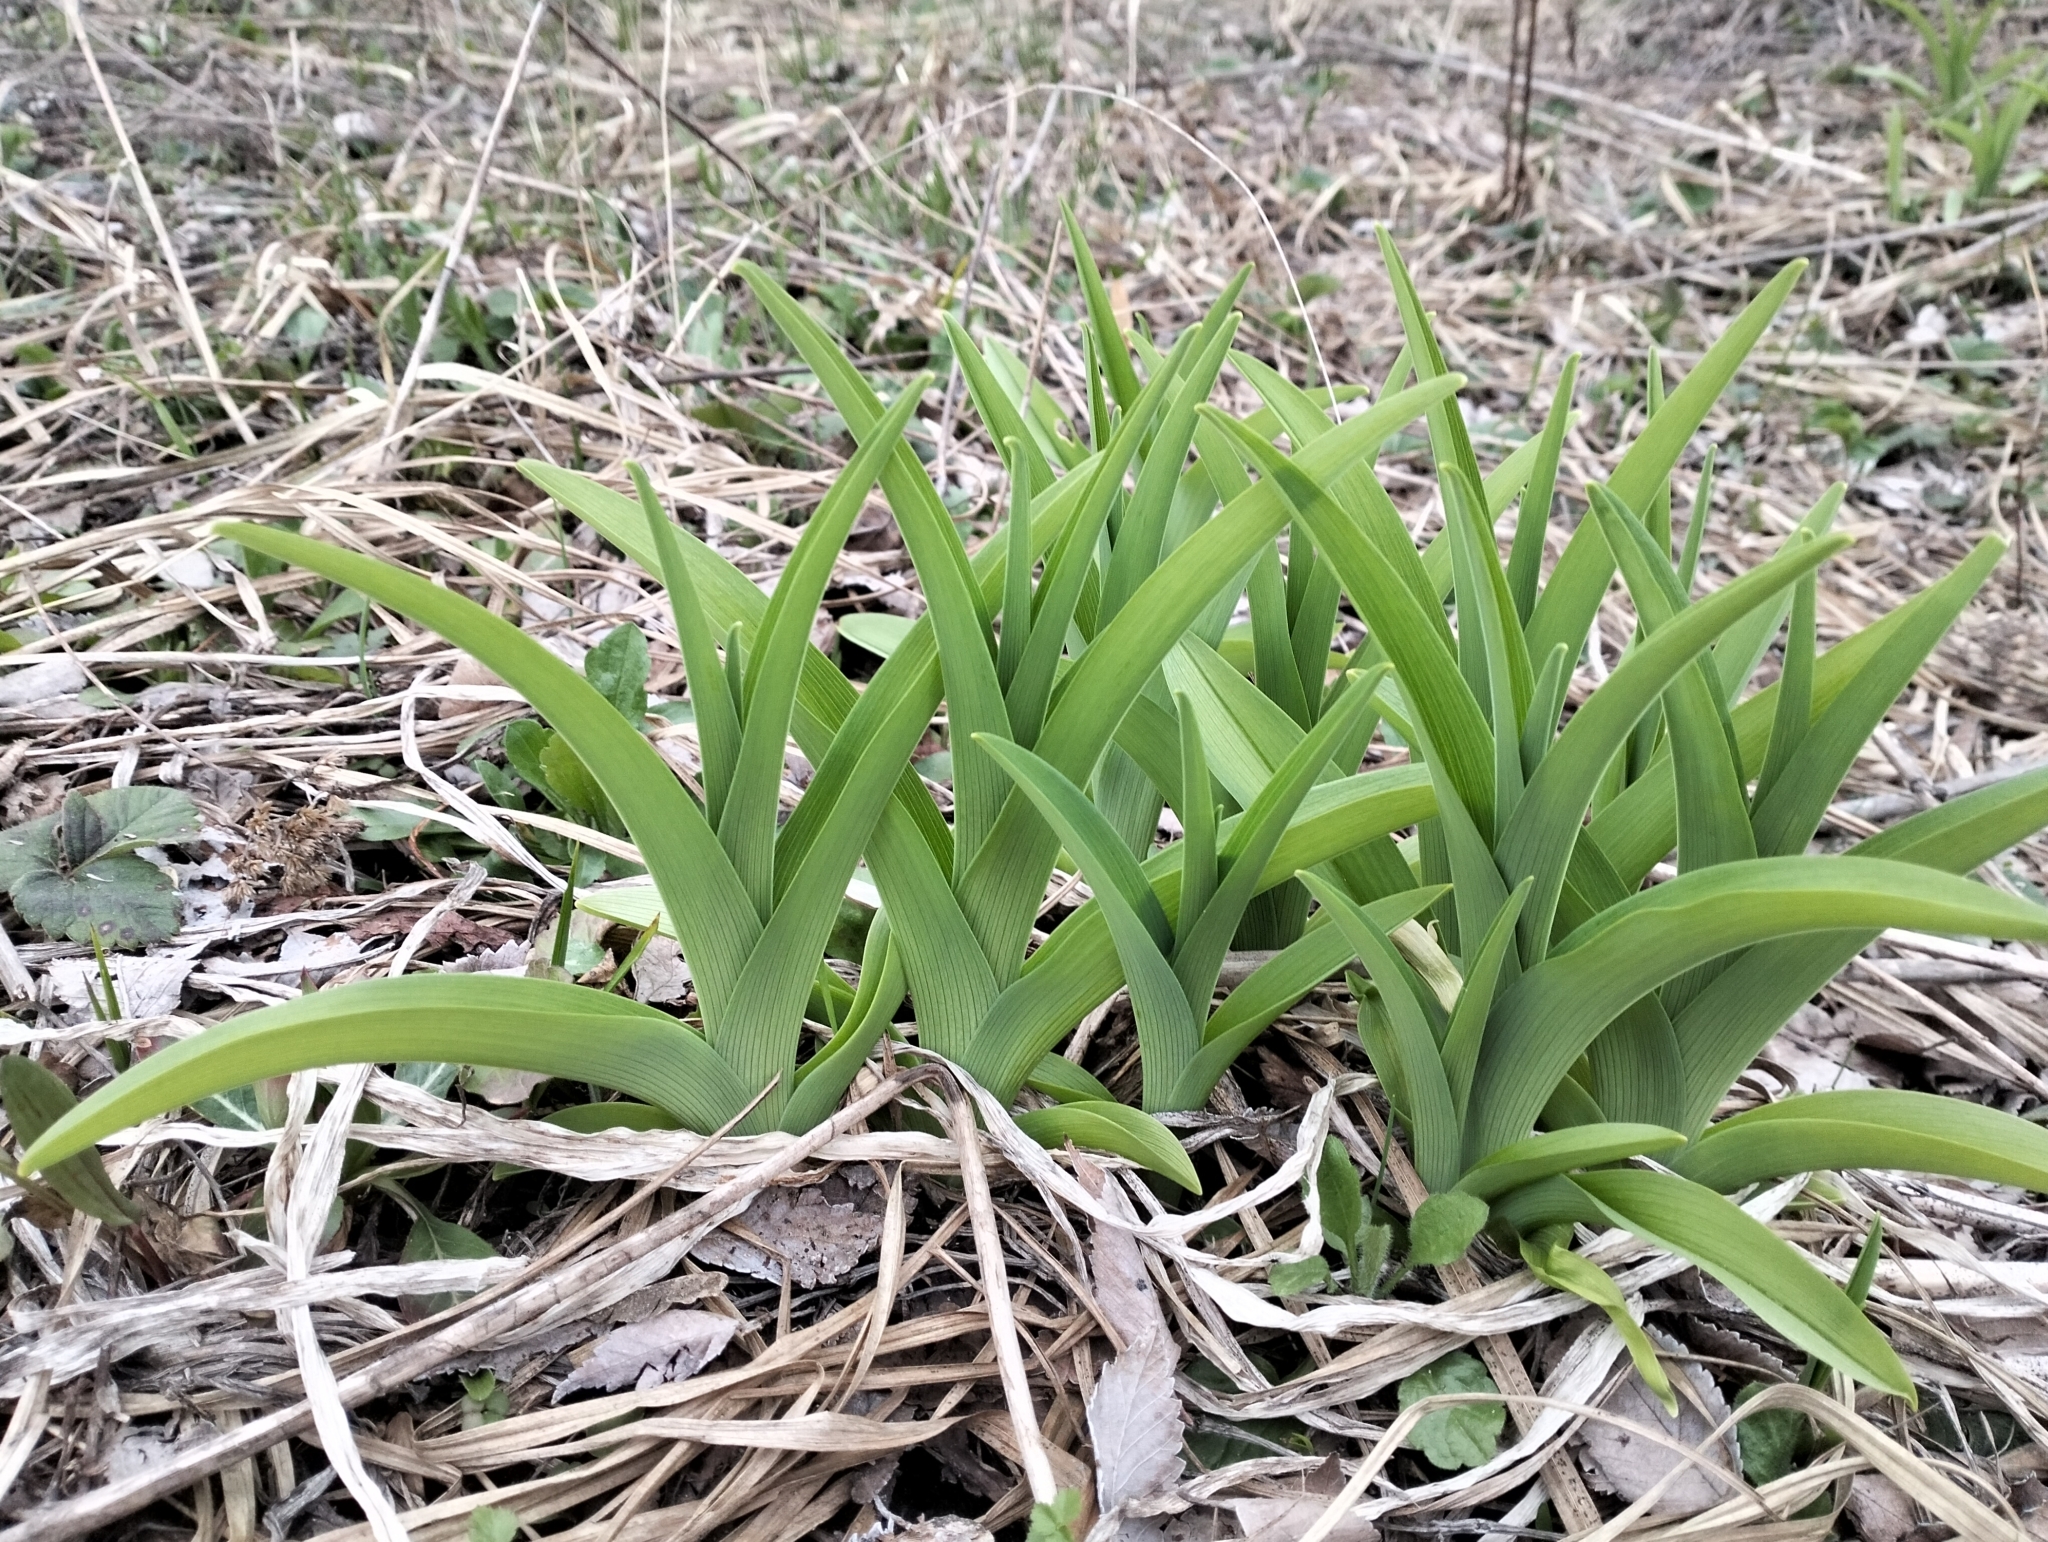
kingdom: Plantae
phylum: Tracheophyta
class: Liliopsida
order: Asparagales
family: Asphodelaceae
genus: Hemerocallis
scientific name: Hemerocallis fulva
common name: Orange day-lily
